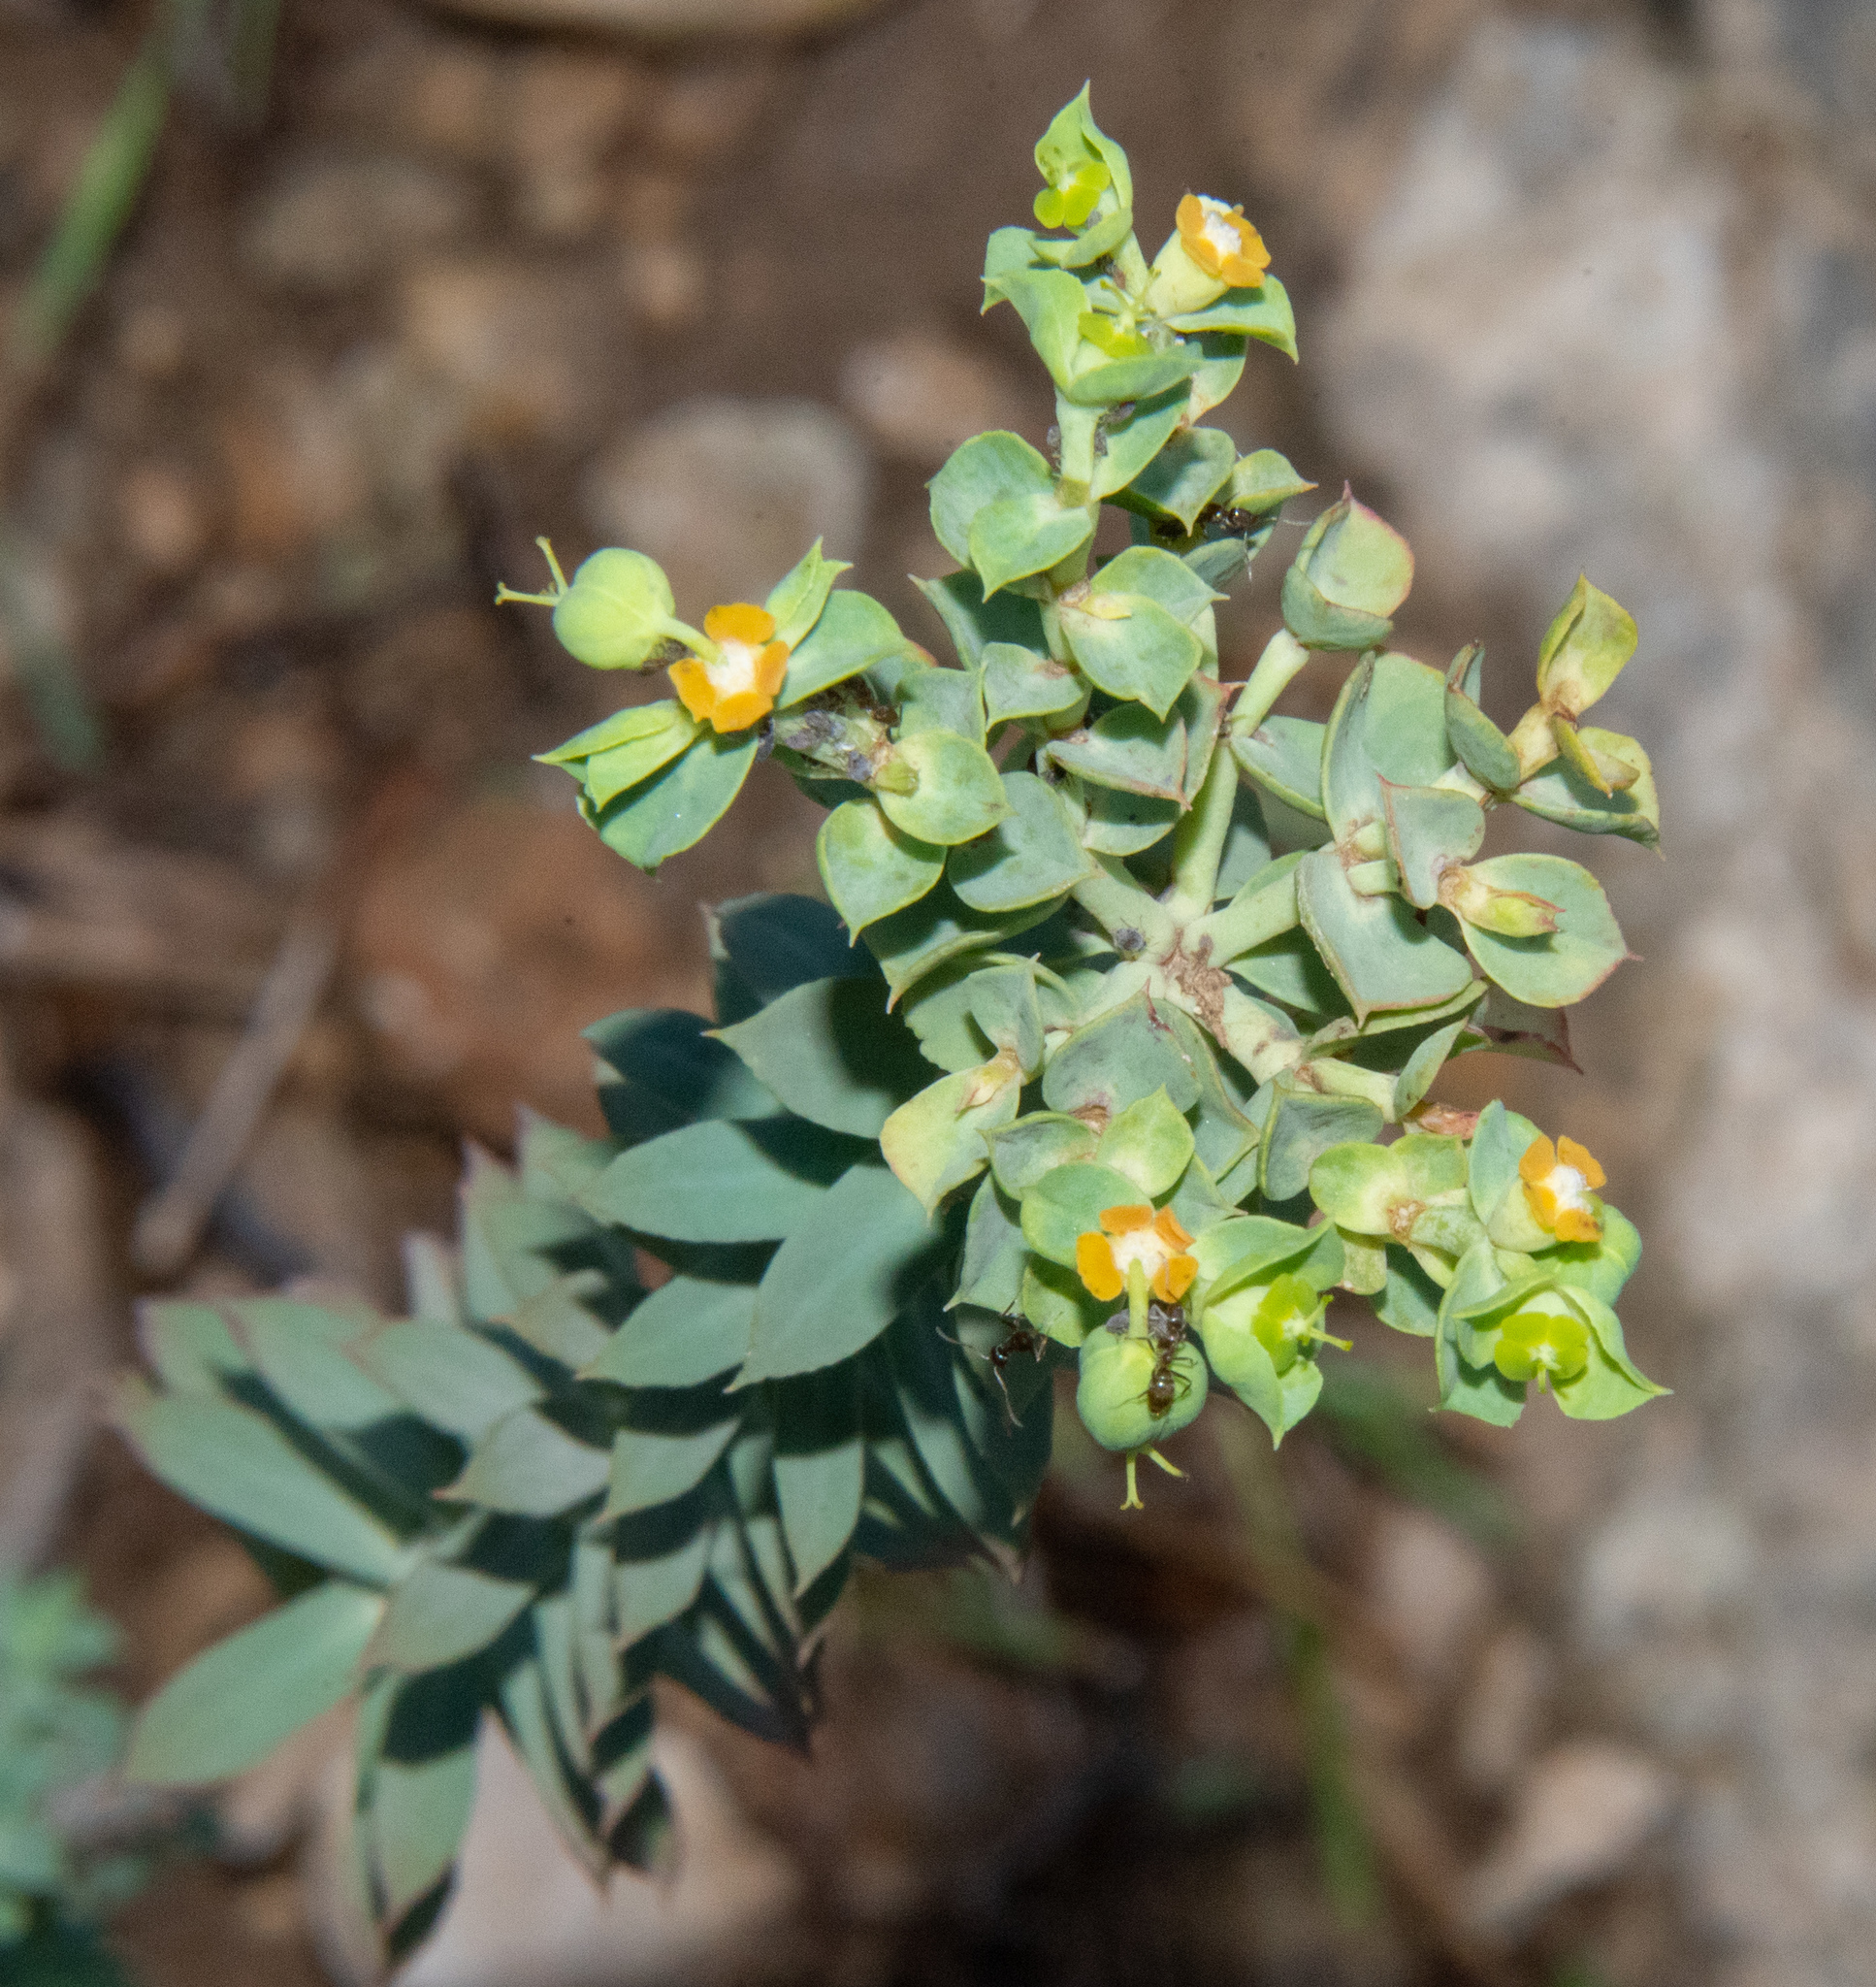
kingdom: Plantae
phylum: Tracheophyta
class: Magnoliopsida
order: Malpighiales
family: Euphorbiaceae
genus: Euphorbia
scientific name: Euphorbia paralias
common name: Sea spurge
